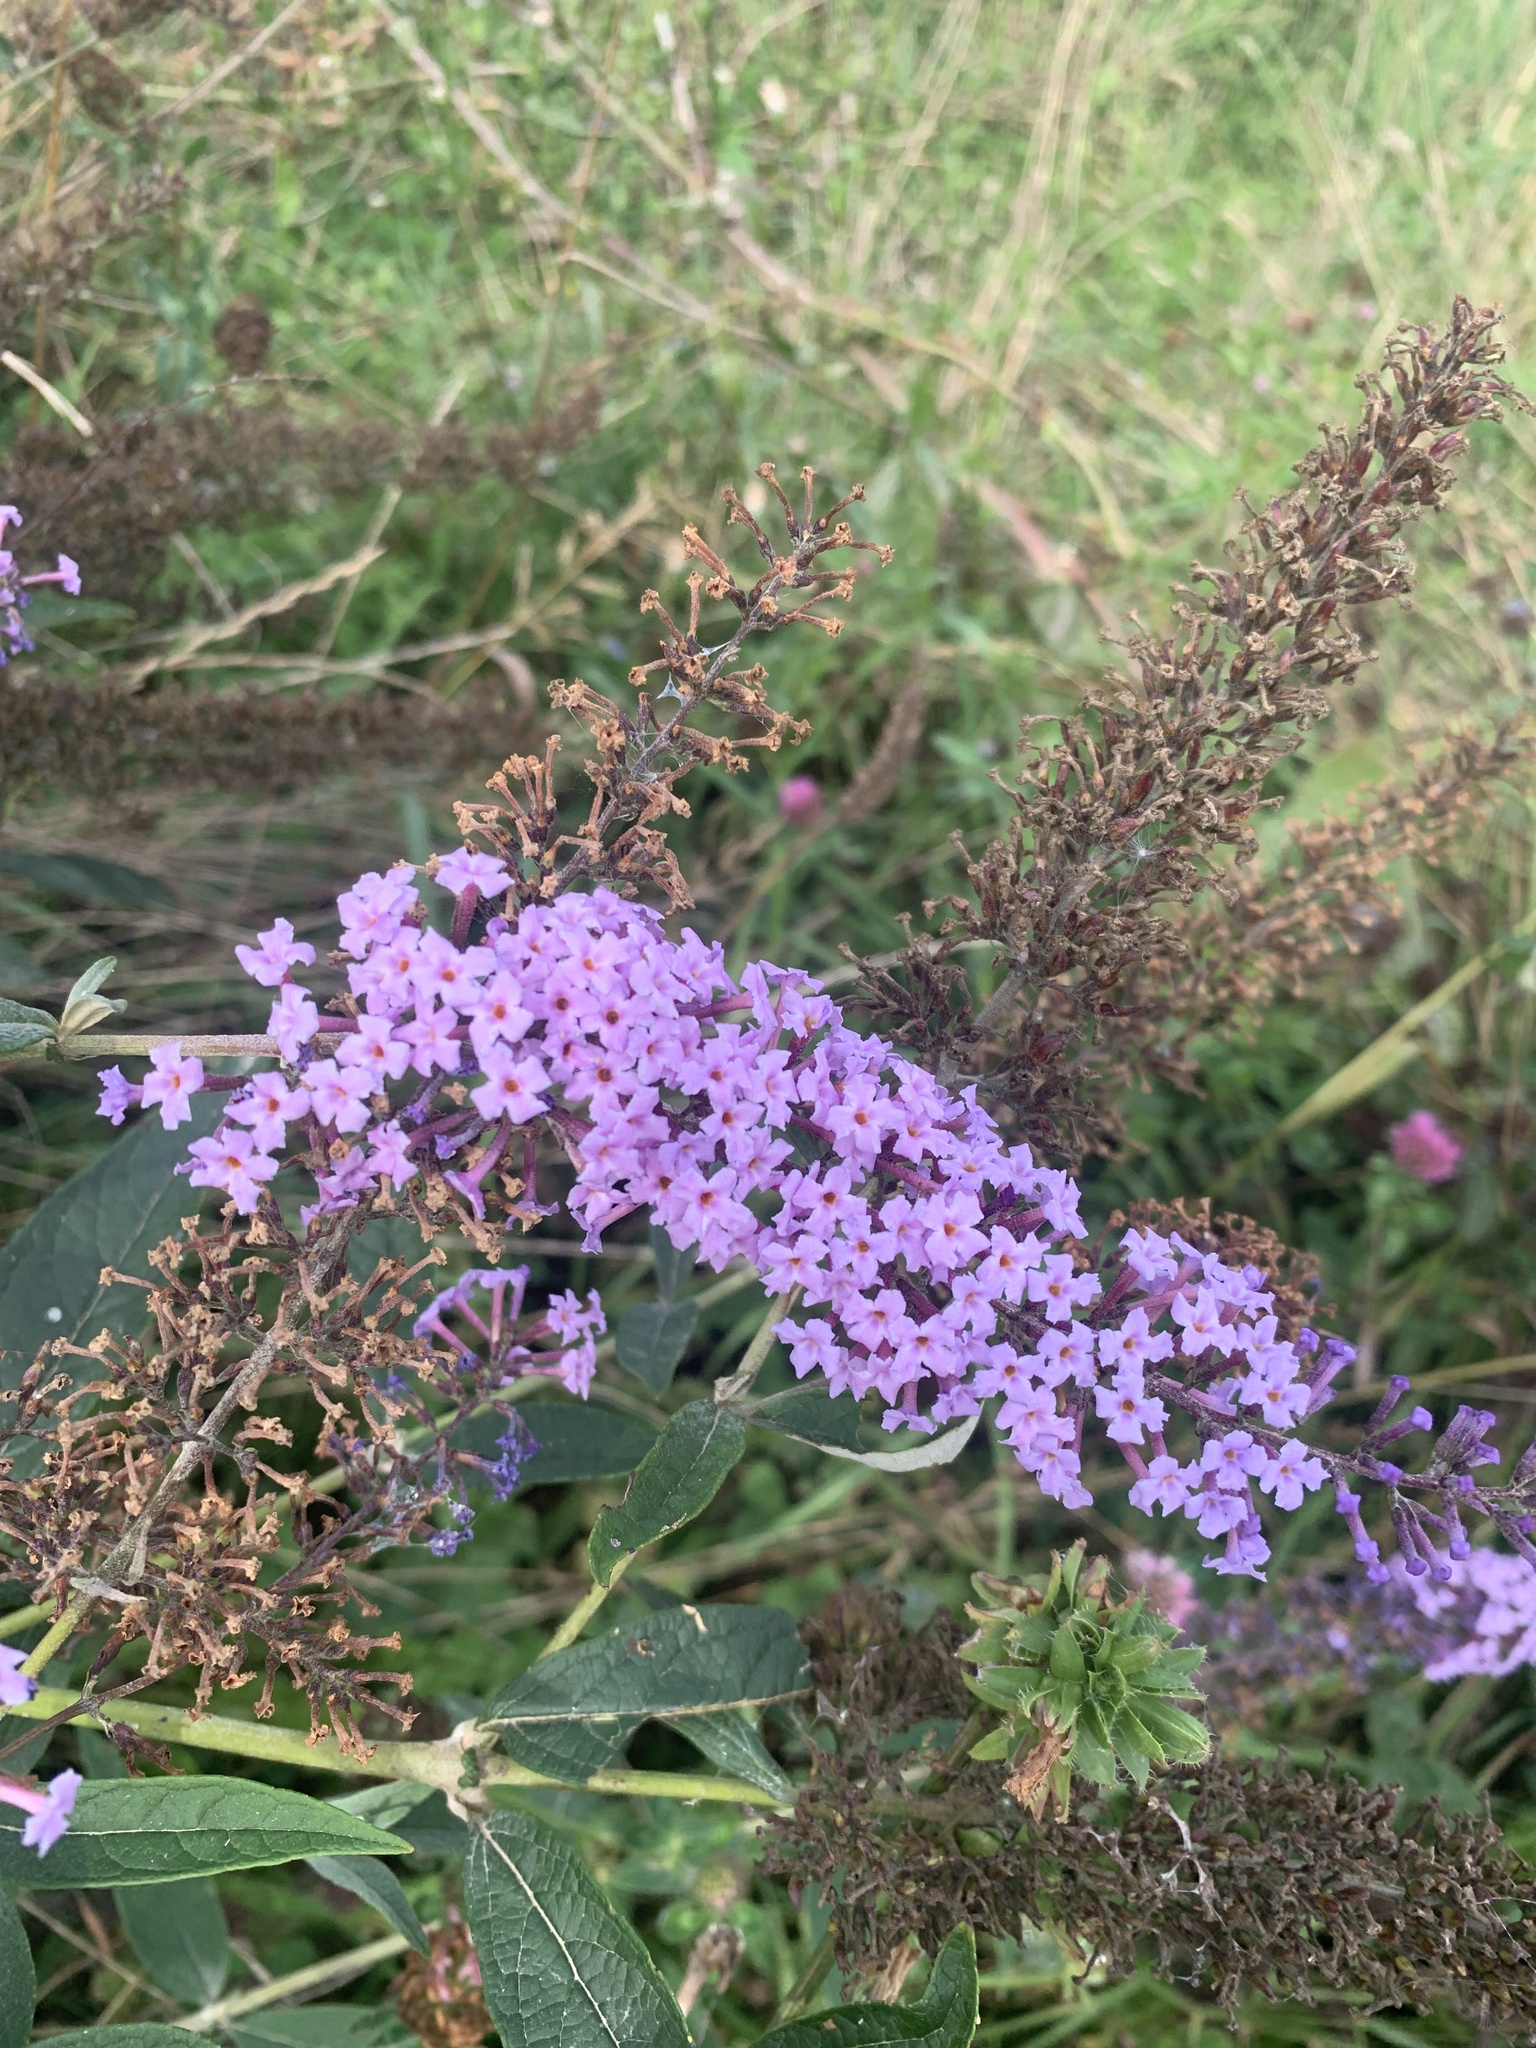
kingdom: Plantae
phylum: Tracheophyta
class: Magnoliopsida
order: Lamiales
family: Scrophulariaceae
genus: Buddleja
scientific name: Buddleja davidii
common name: Butterfly-bush
